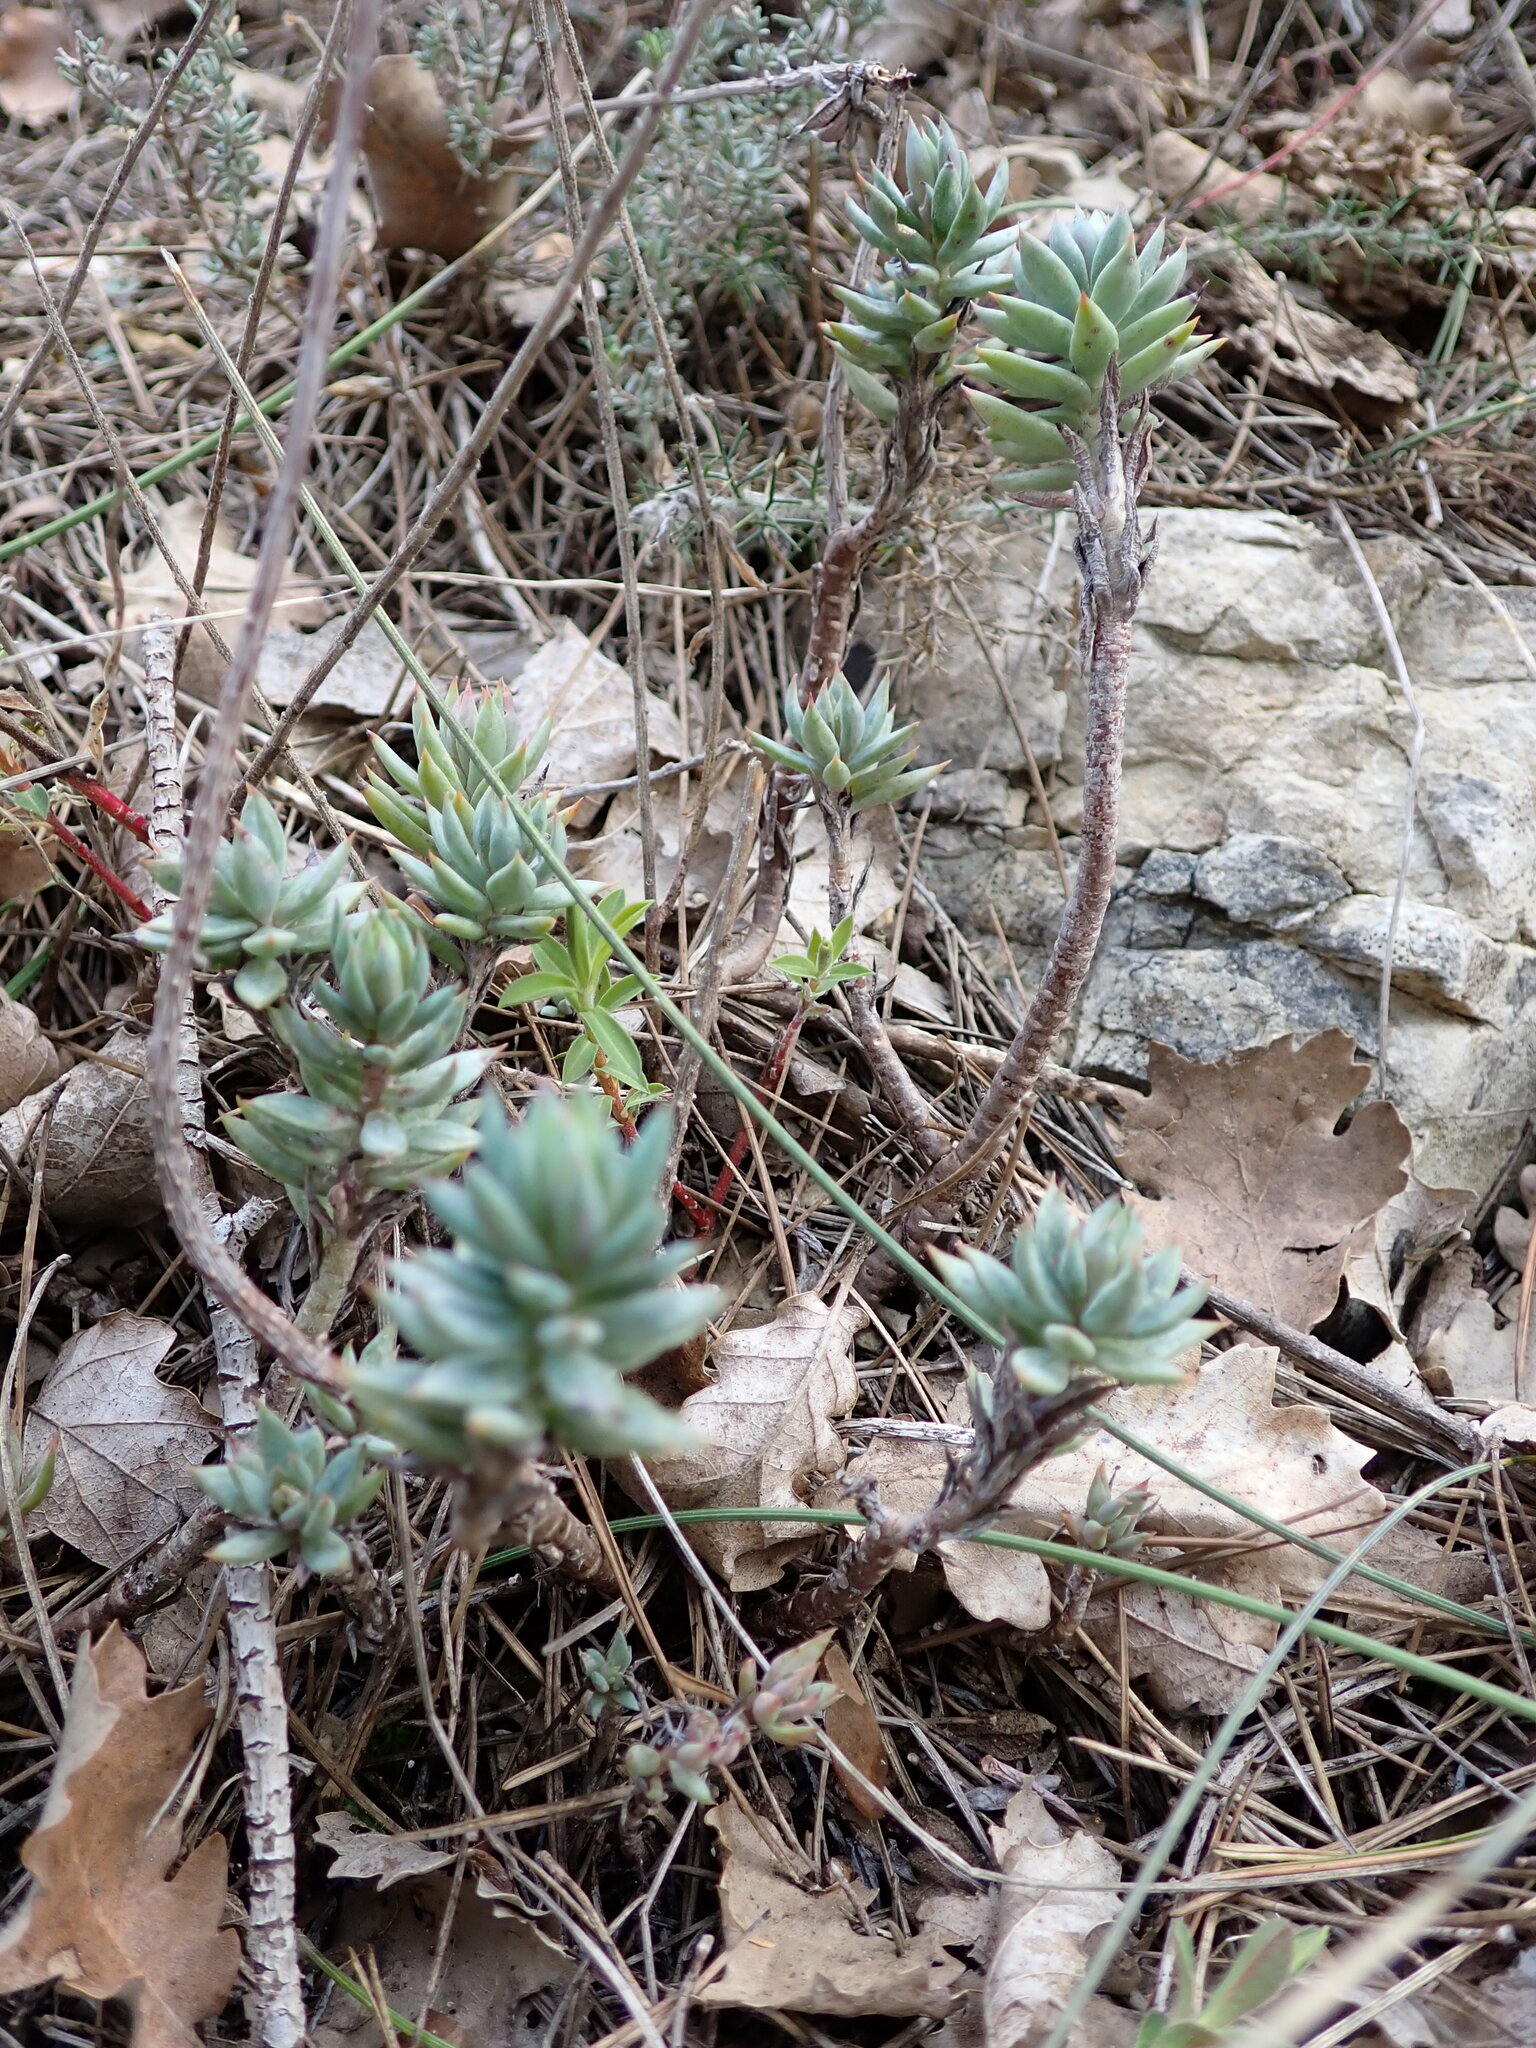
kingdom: Plantae
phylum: Tracheophyta
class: Magnoliopsida
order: Saxifragales
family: Crassulaceae
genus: Petrosedum
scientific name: Petrosedum sediforme
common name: Pale stonecrop
